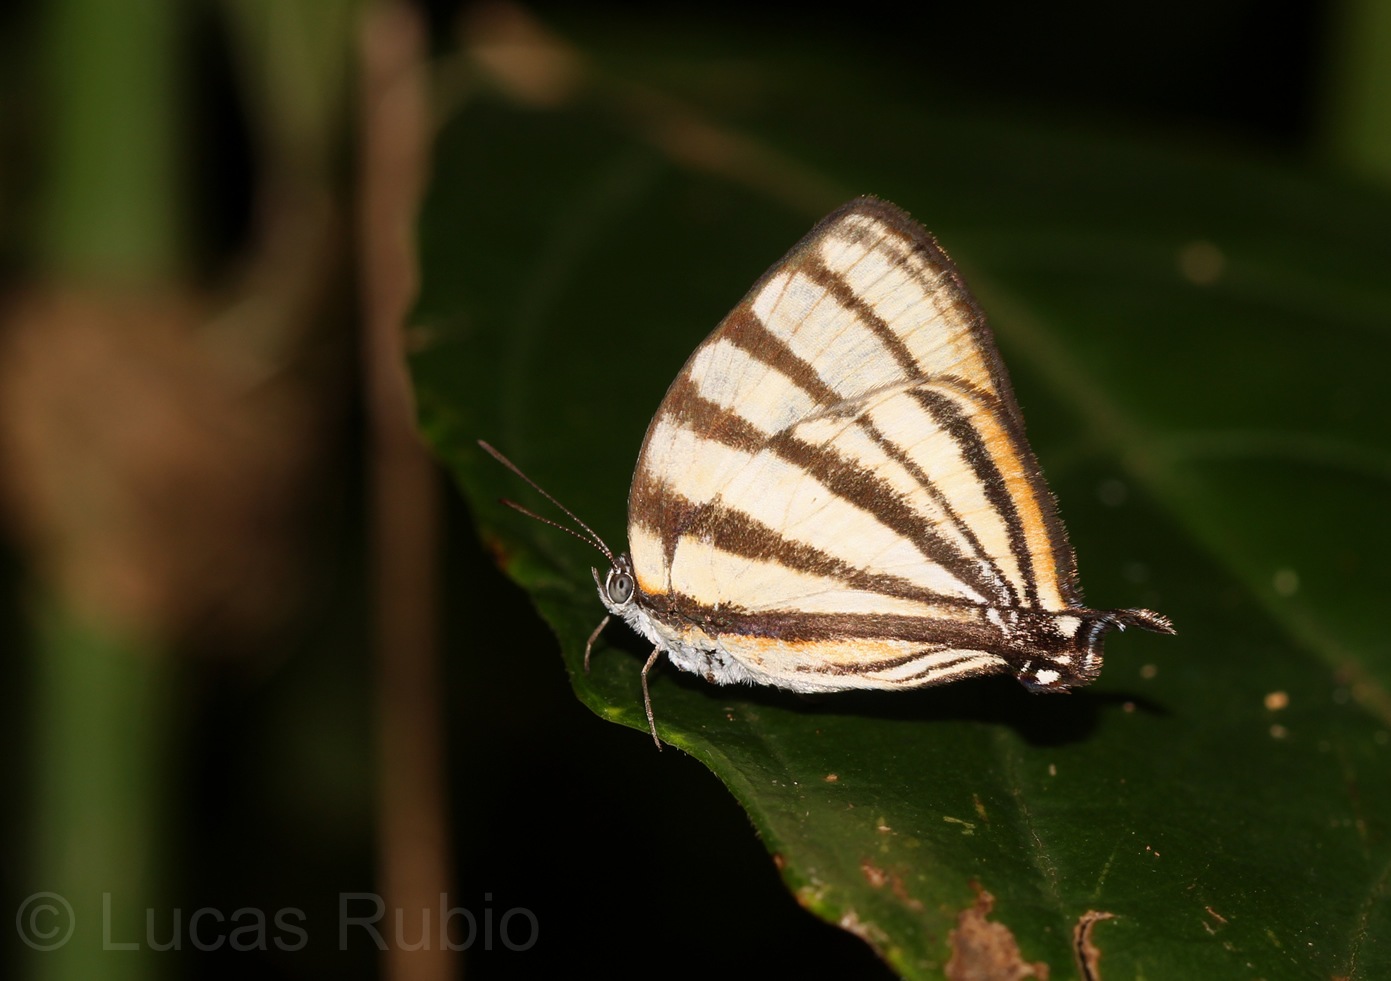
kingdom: Animalia
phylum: Arthropoda
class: Insecta
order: Lepidoptera
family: Lycaenidae
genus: Arawacus
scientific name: Arawacus separata
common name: Separated stripestreak
